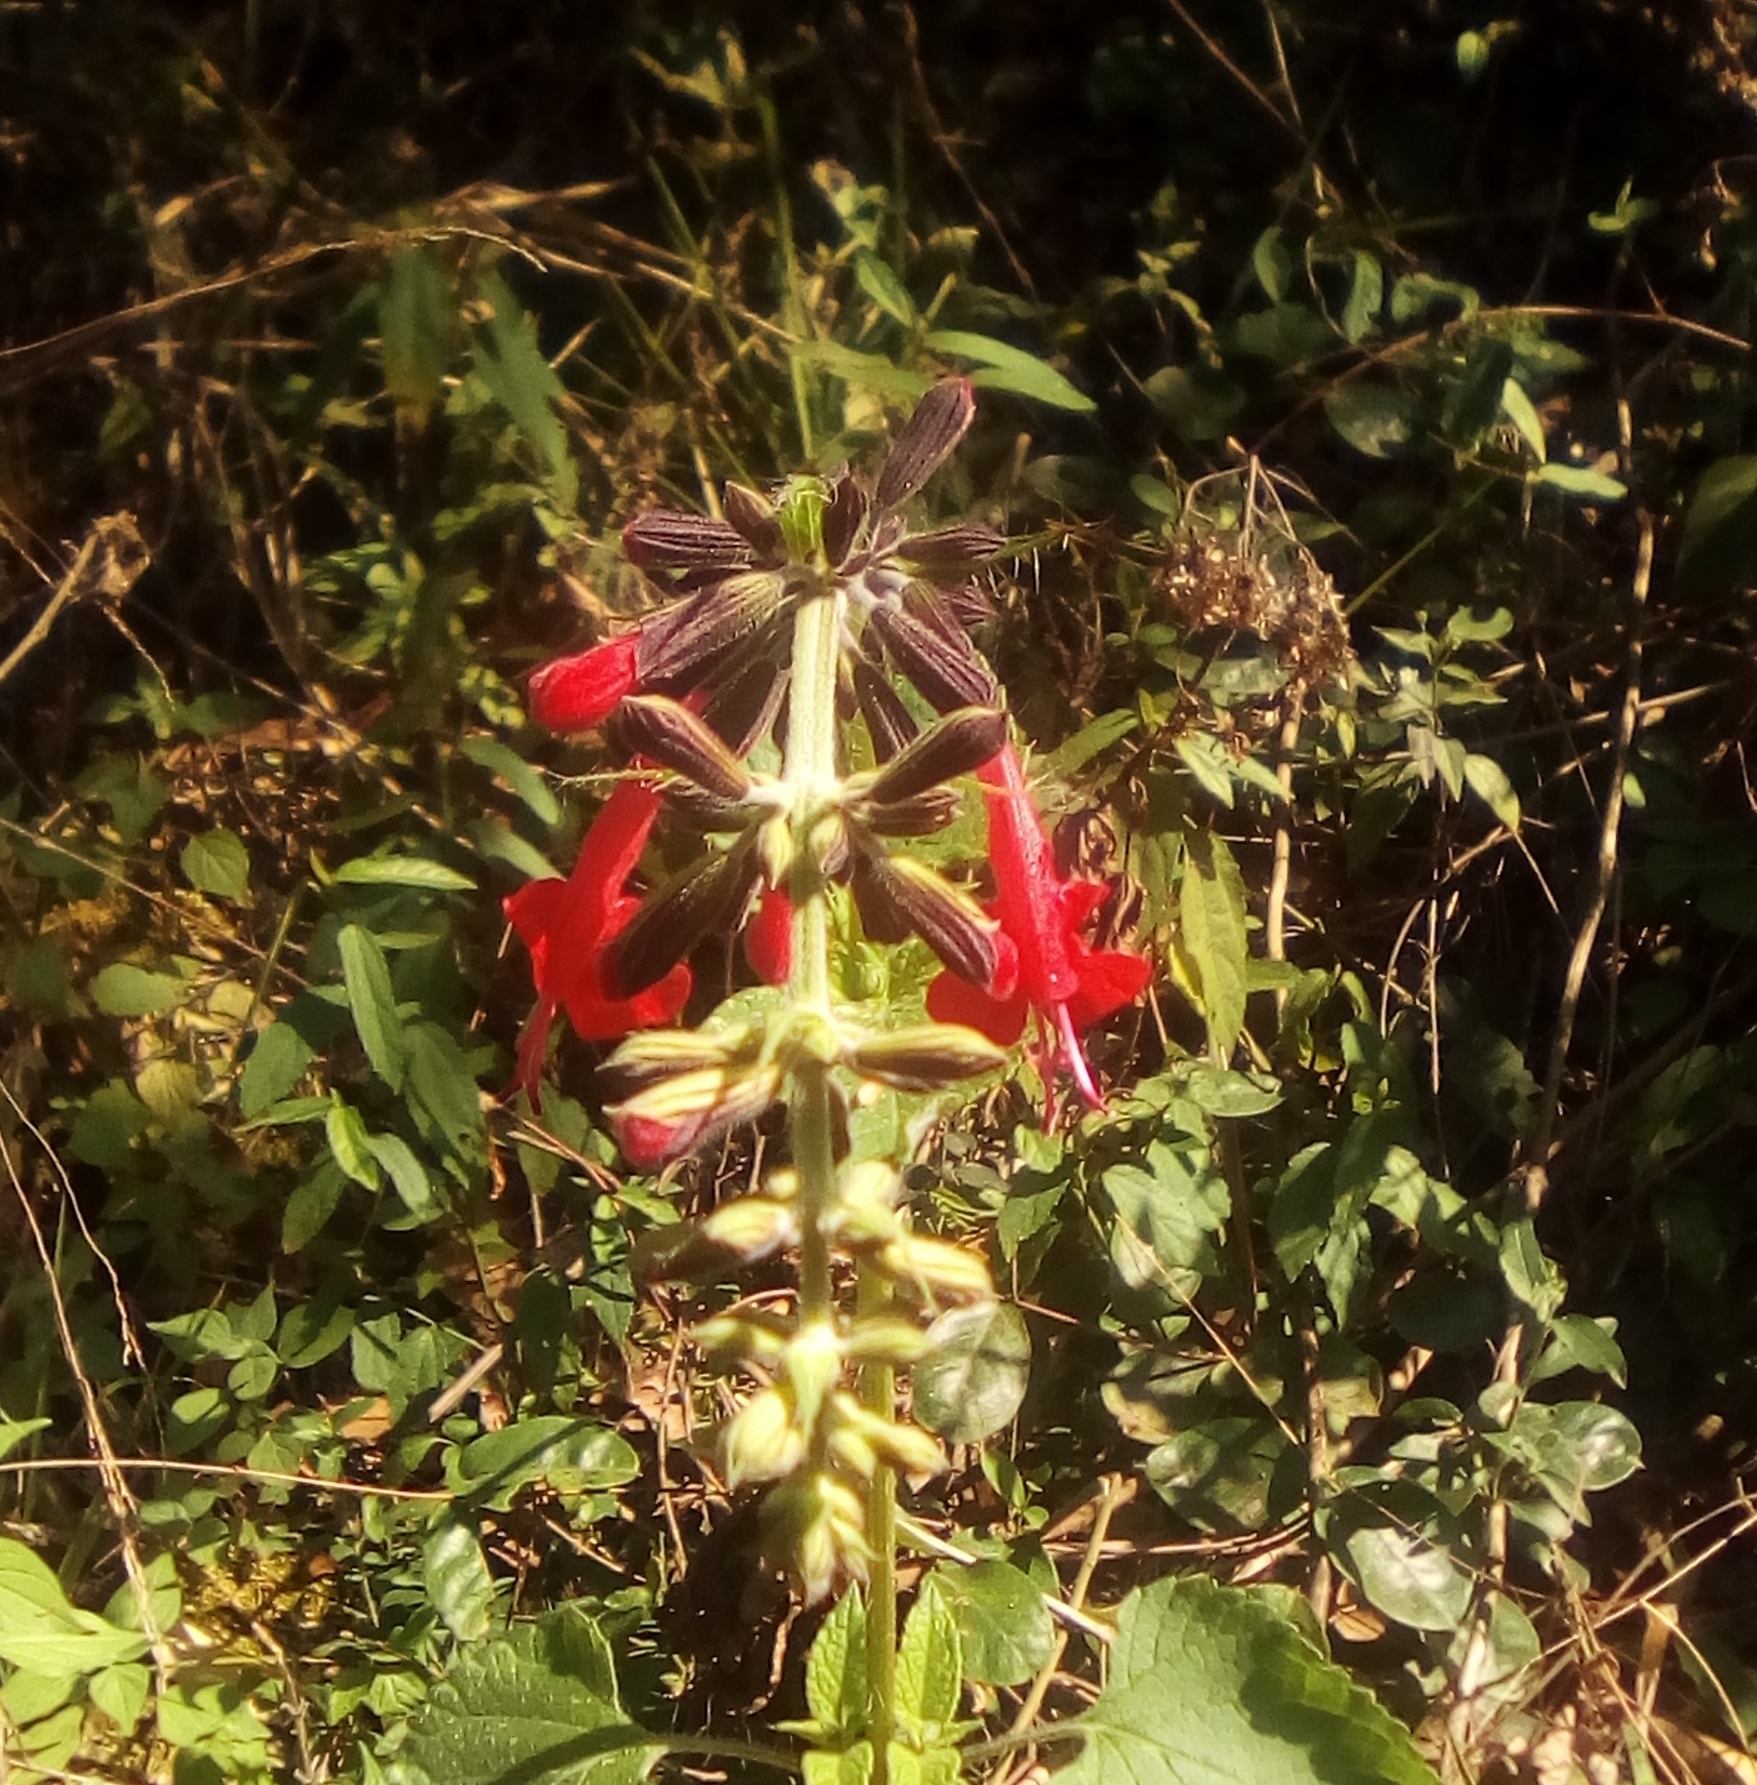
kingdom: Plantae
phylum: Tracheophyta
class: Magnoliopsida
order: Lamiales
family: Lamiaceae
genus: Salvia
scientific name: Salvia coccinea
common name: Blood sage
